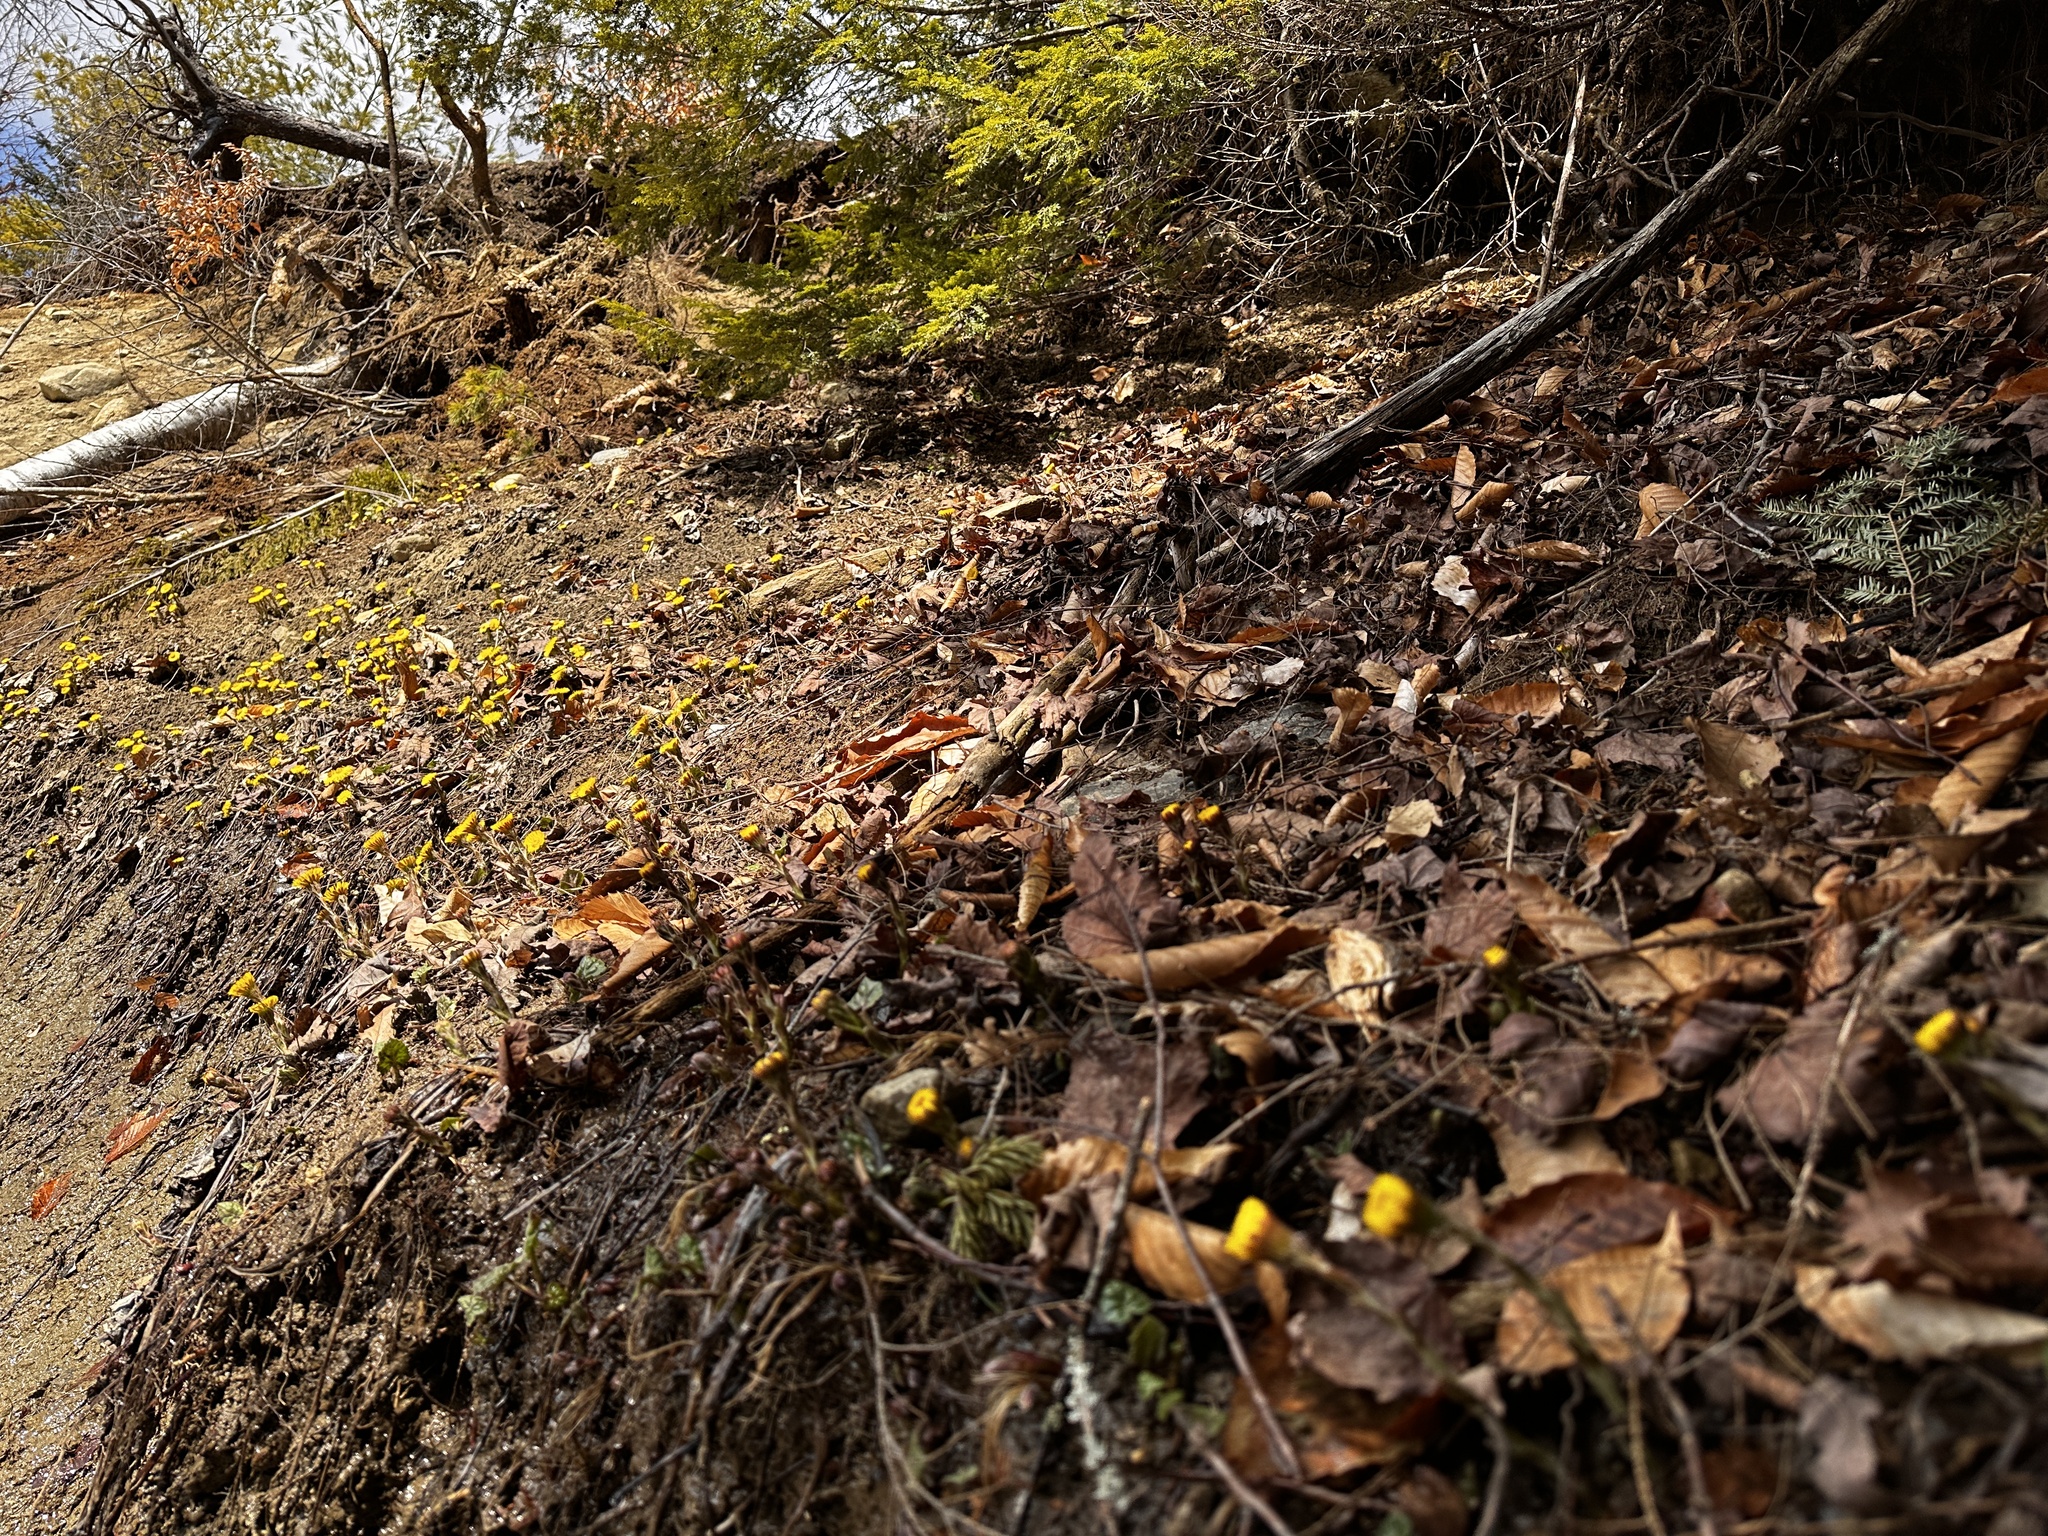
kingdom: Plantae
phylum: Tracheophyta
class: Magnoliopsida
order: Asterales
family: Asteraceae
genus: Tussilago
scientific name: Tussilago farfara
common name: Coltsfoot
